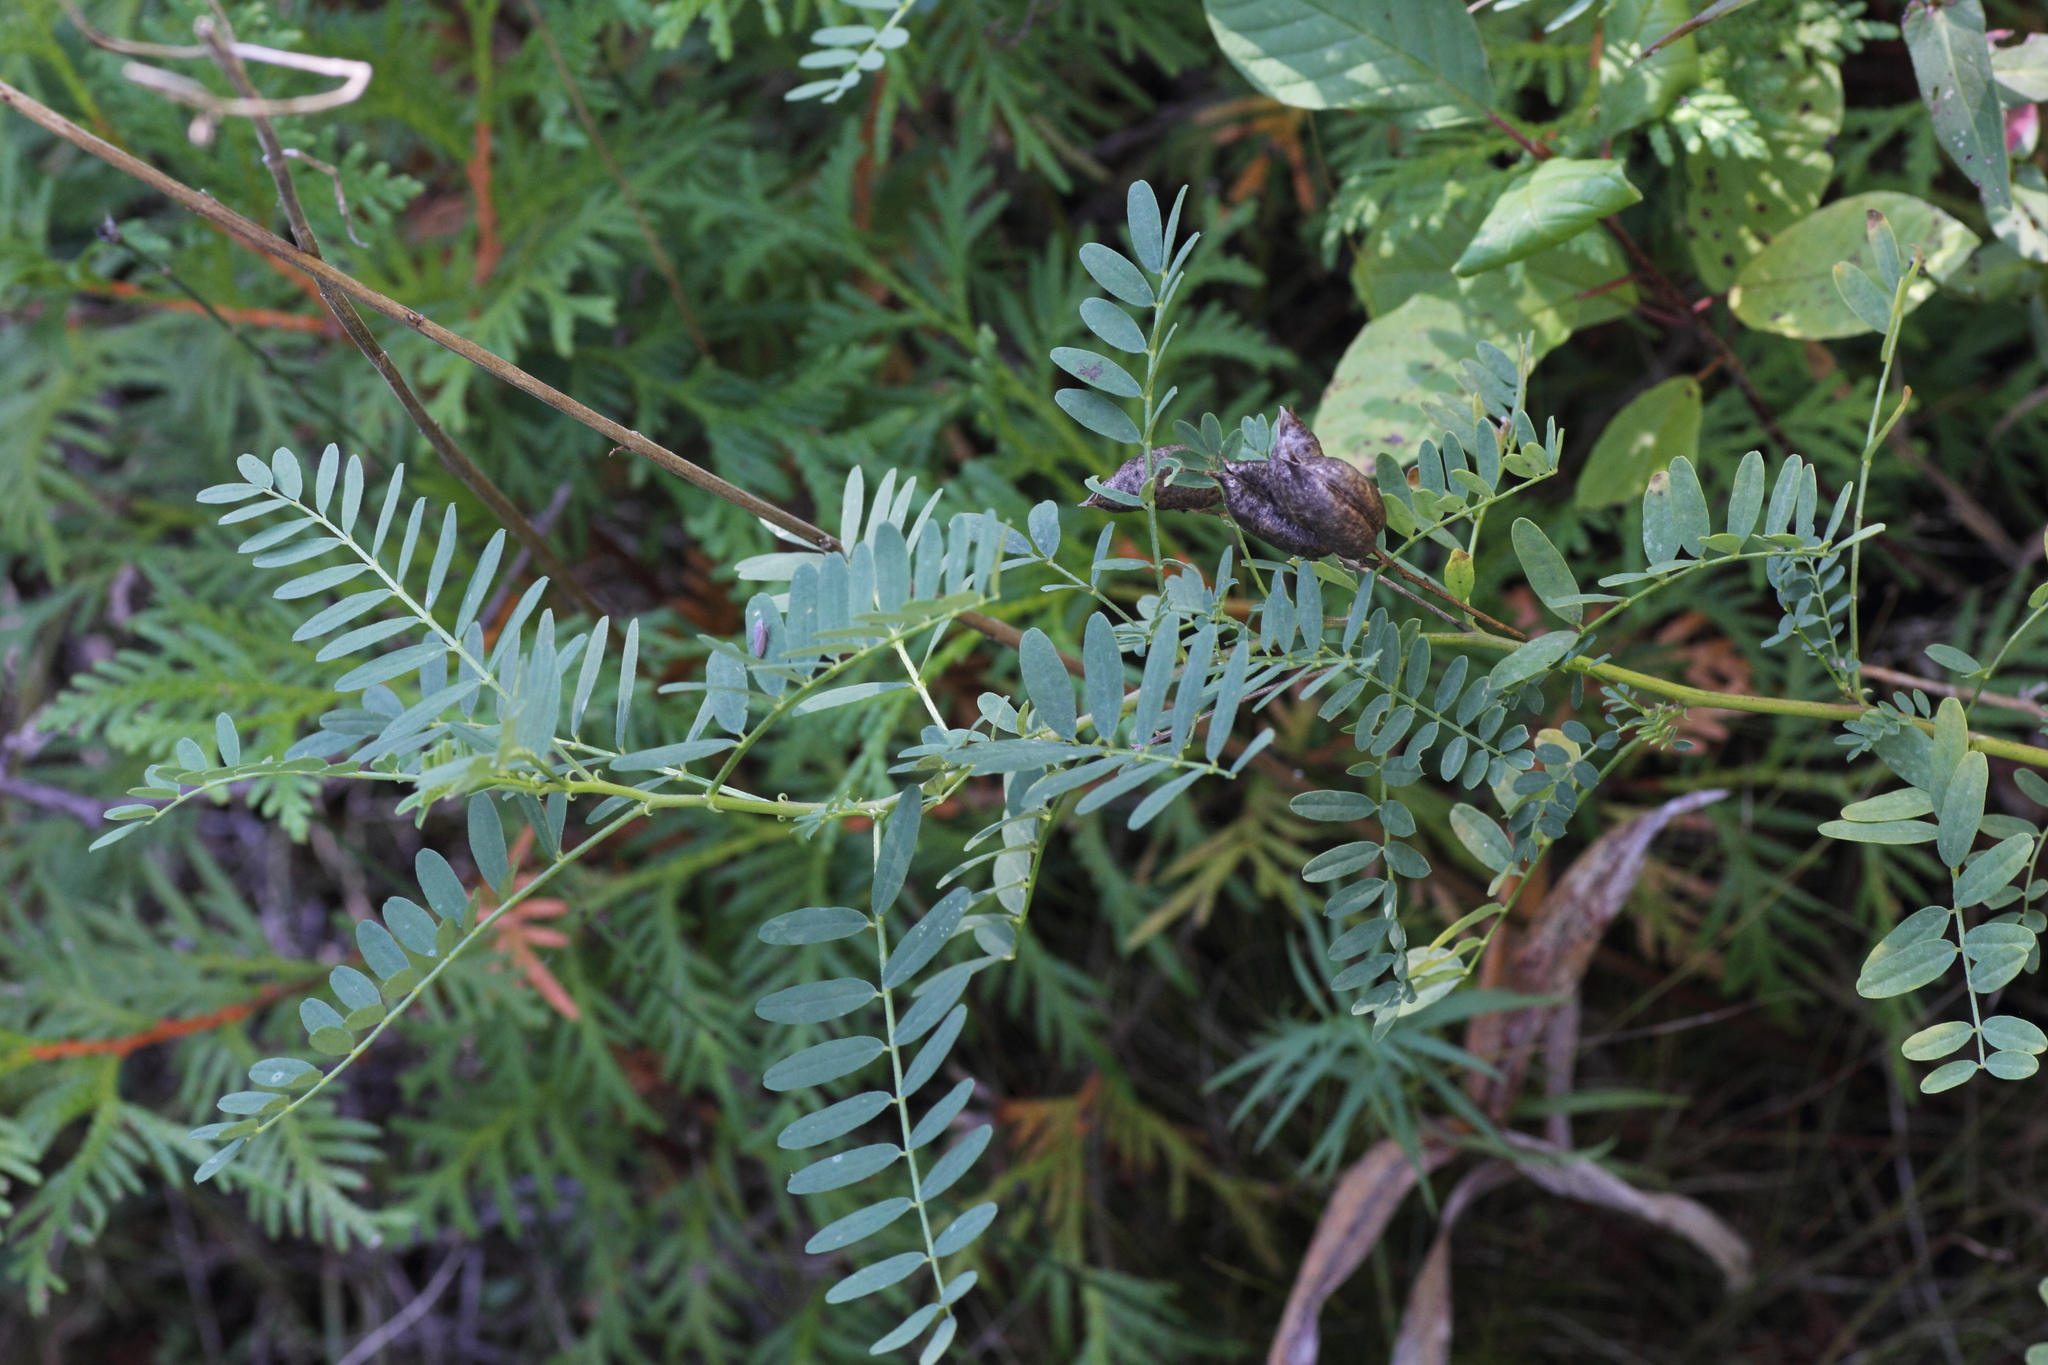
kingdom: Plantae
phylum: Tracheophyta
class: Magnoliopsida
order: Fabales
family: Fabaceae
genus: Astragalus
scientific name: Astragalus neglectus
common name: Cooper's milk-vetch
